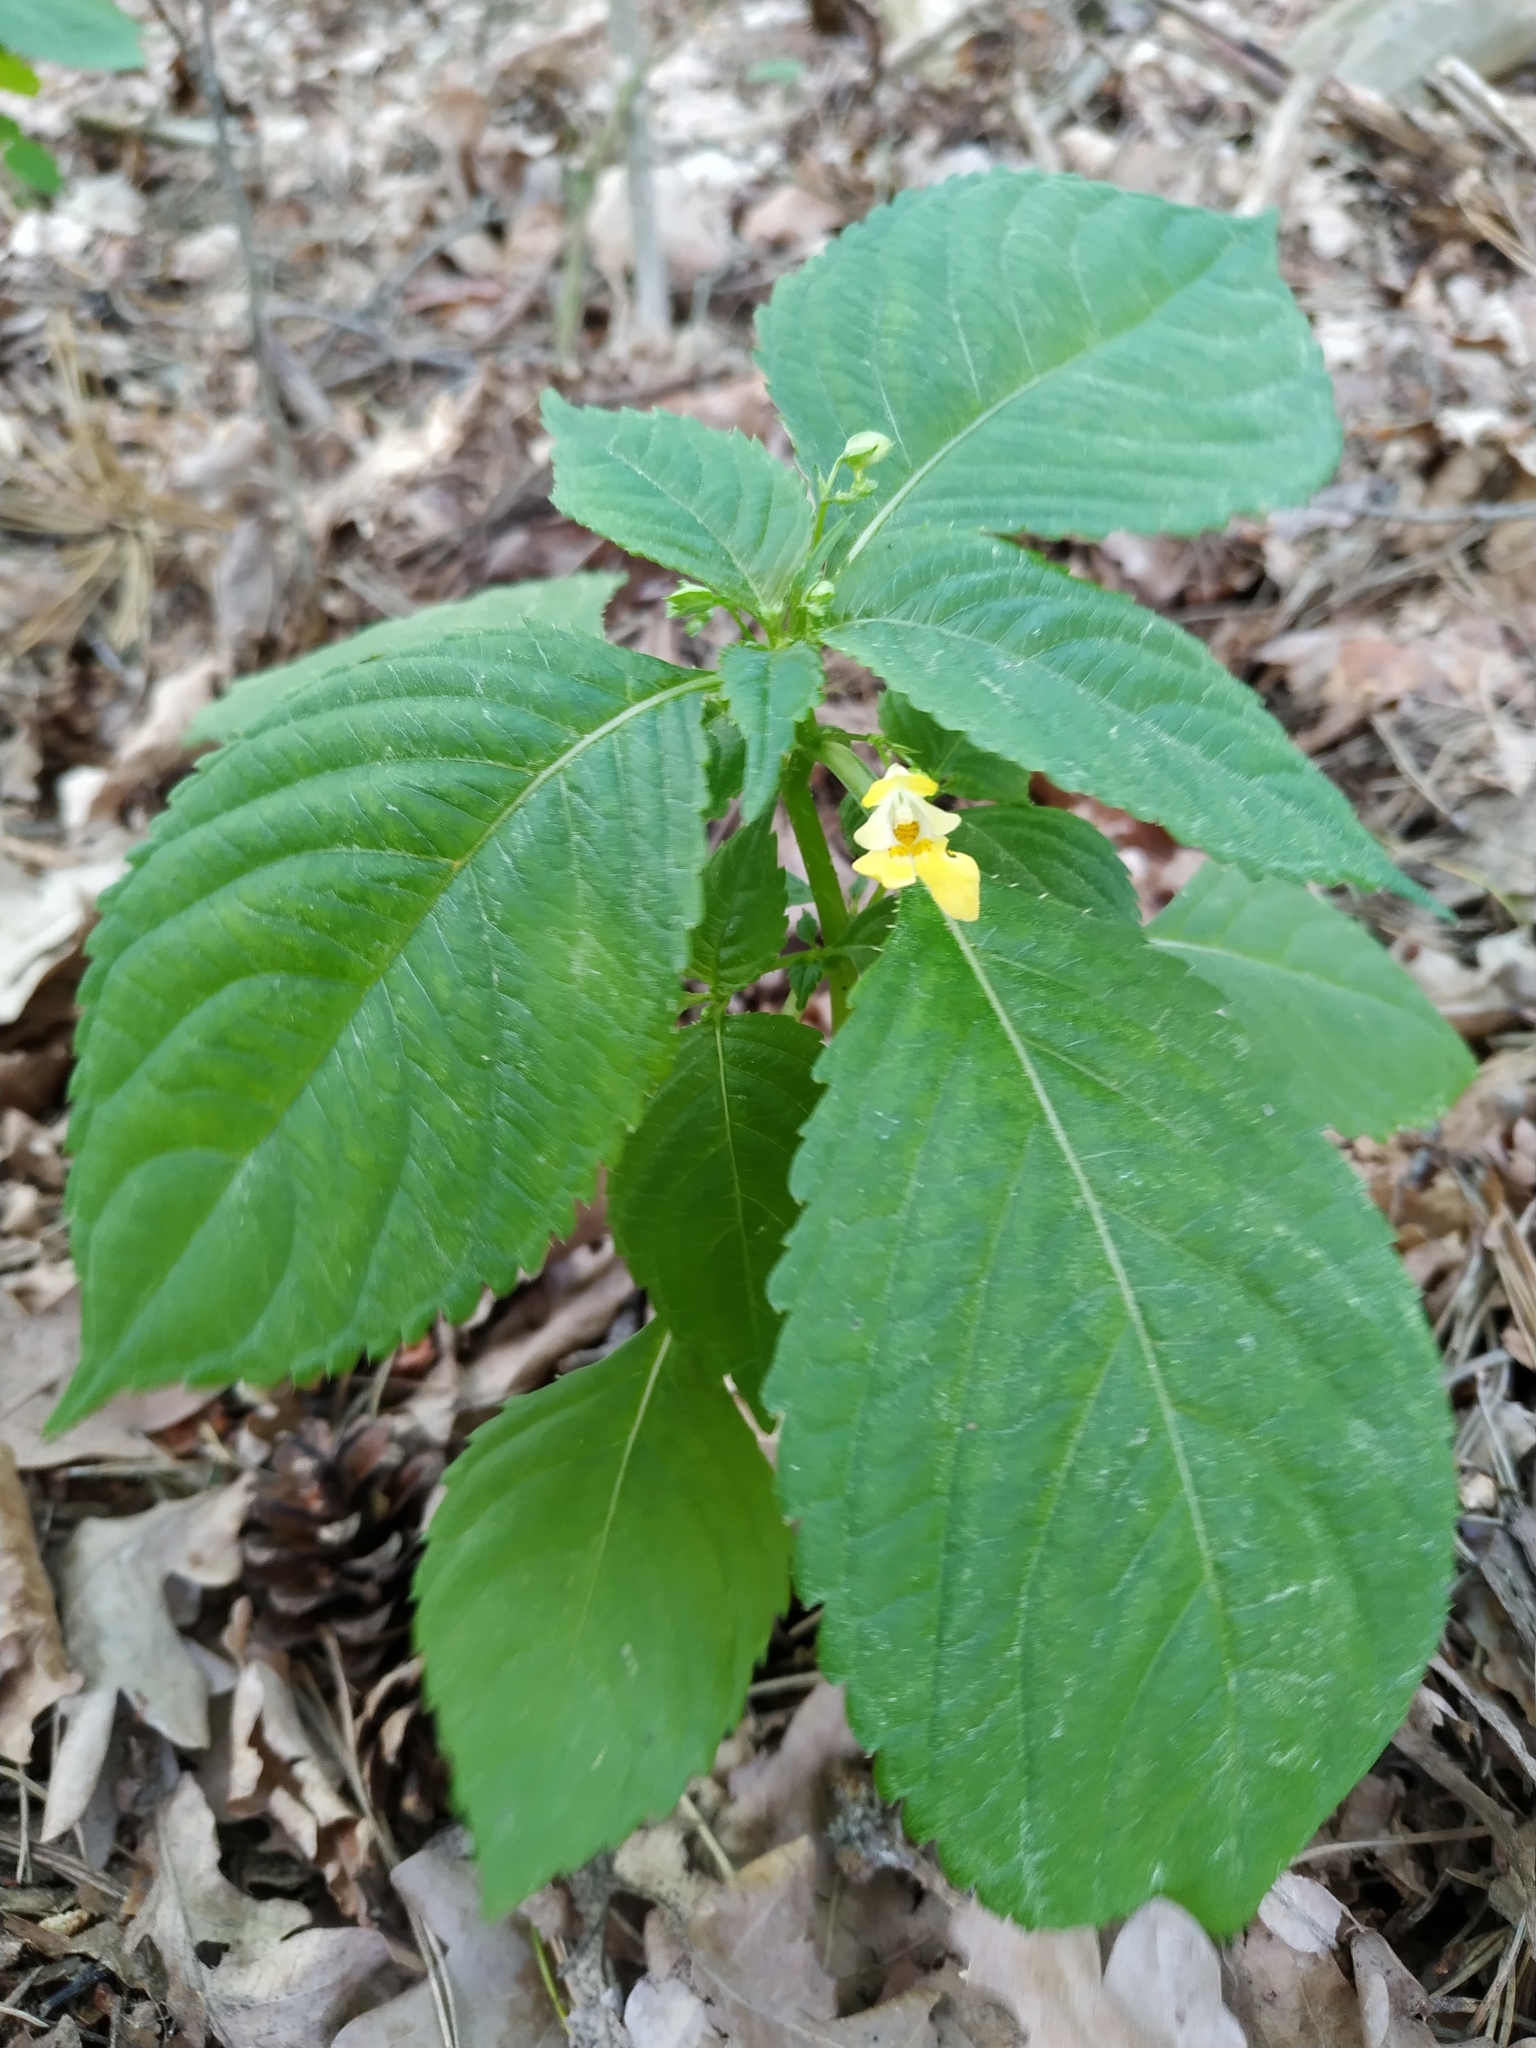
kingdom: Plantae
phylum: Tracheophyta
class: Magnoliopsida
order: Ericales
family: Balsaminaceae
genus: Impatiens
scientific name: Impatiens parviflora
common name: Small balsam
